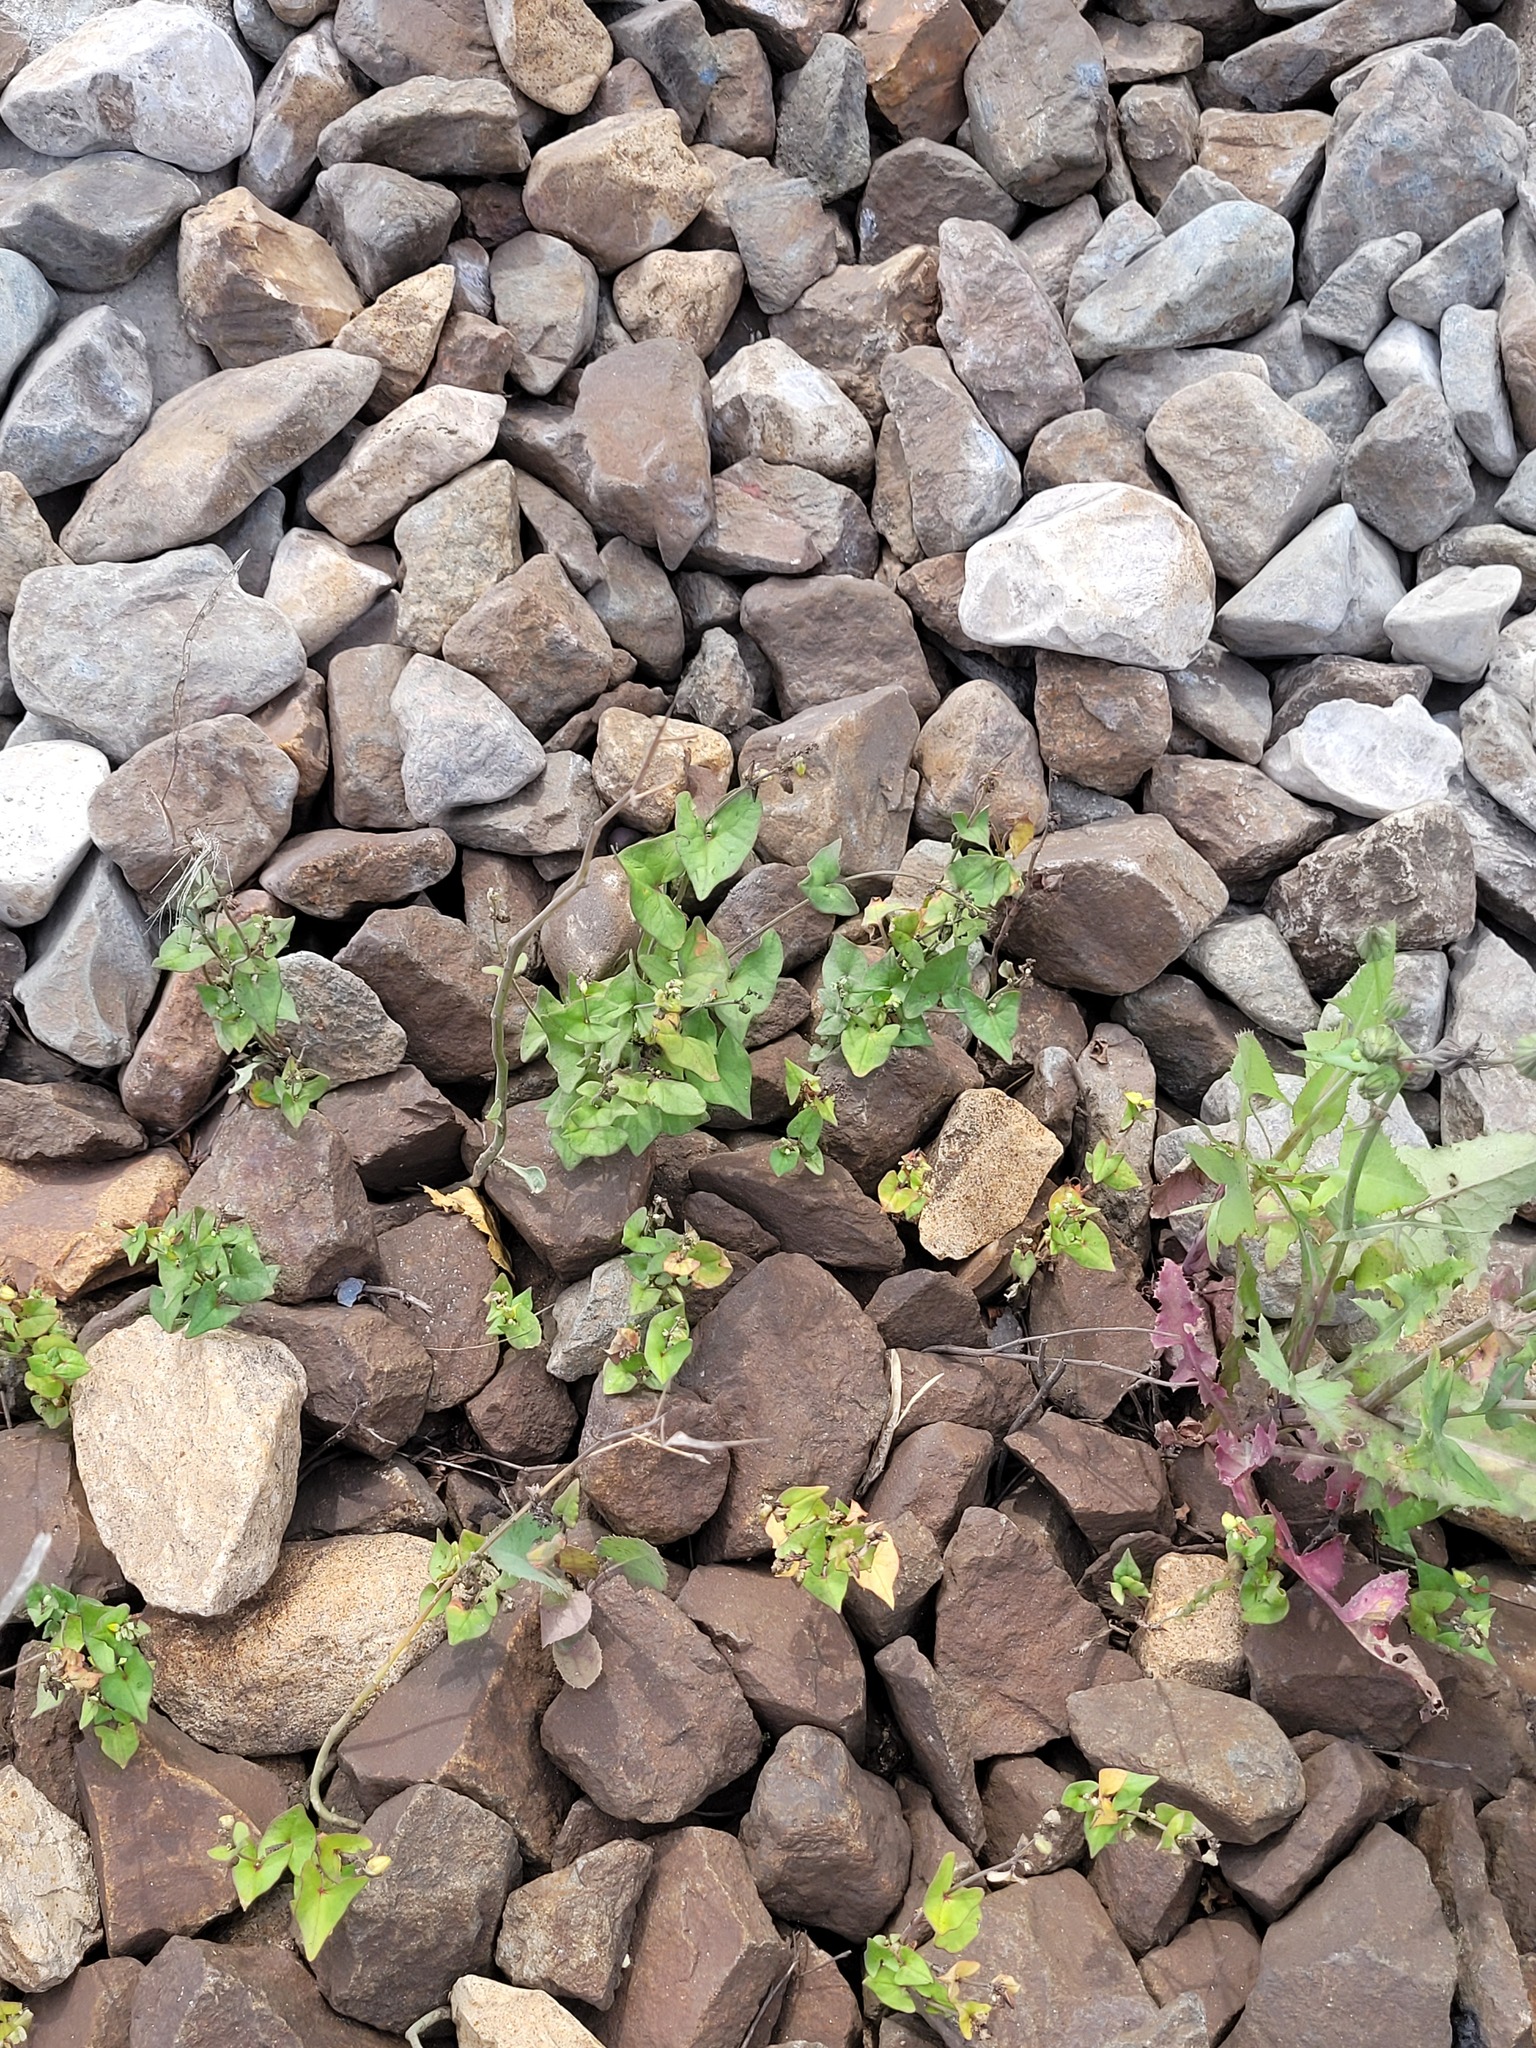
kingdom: Plantae
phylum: Tracheophyta
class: Magnoliopsida
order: Caryophyllales
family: Polygonaceae
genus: Fagopyrum
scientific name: Fagopyrum tataricum
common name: Green buckwheat
